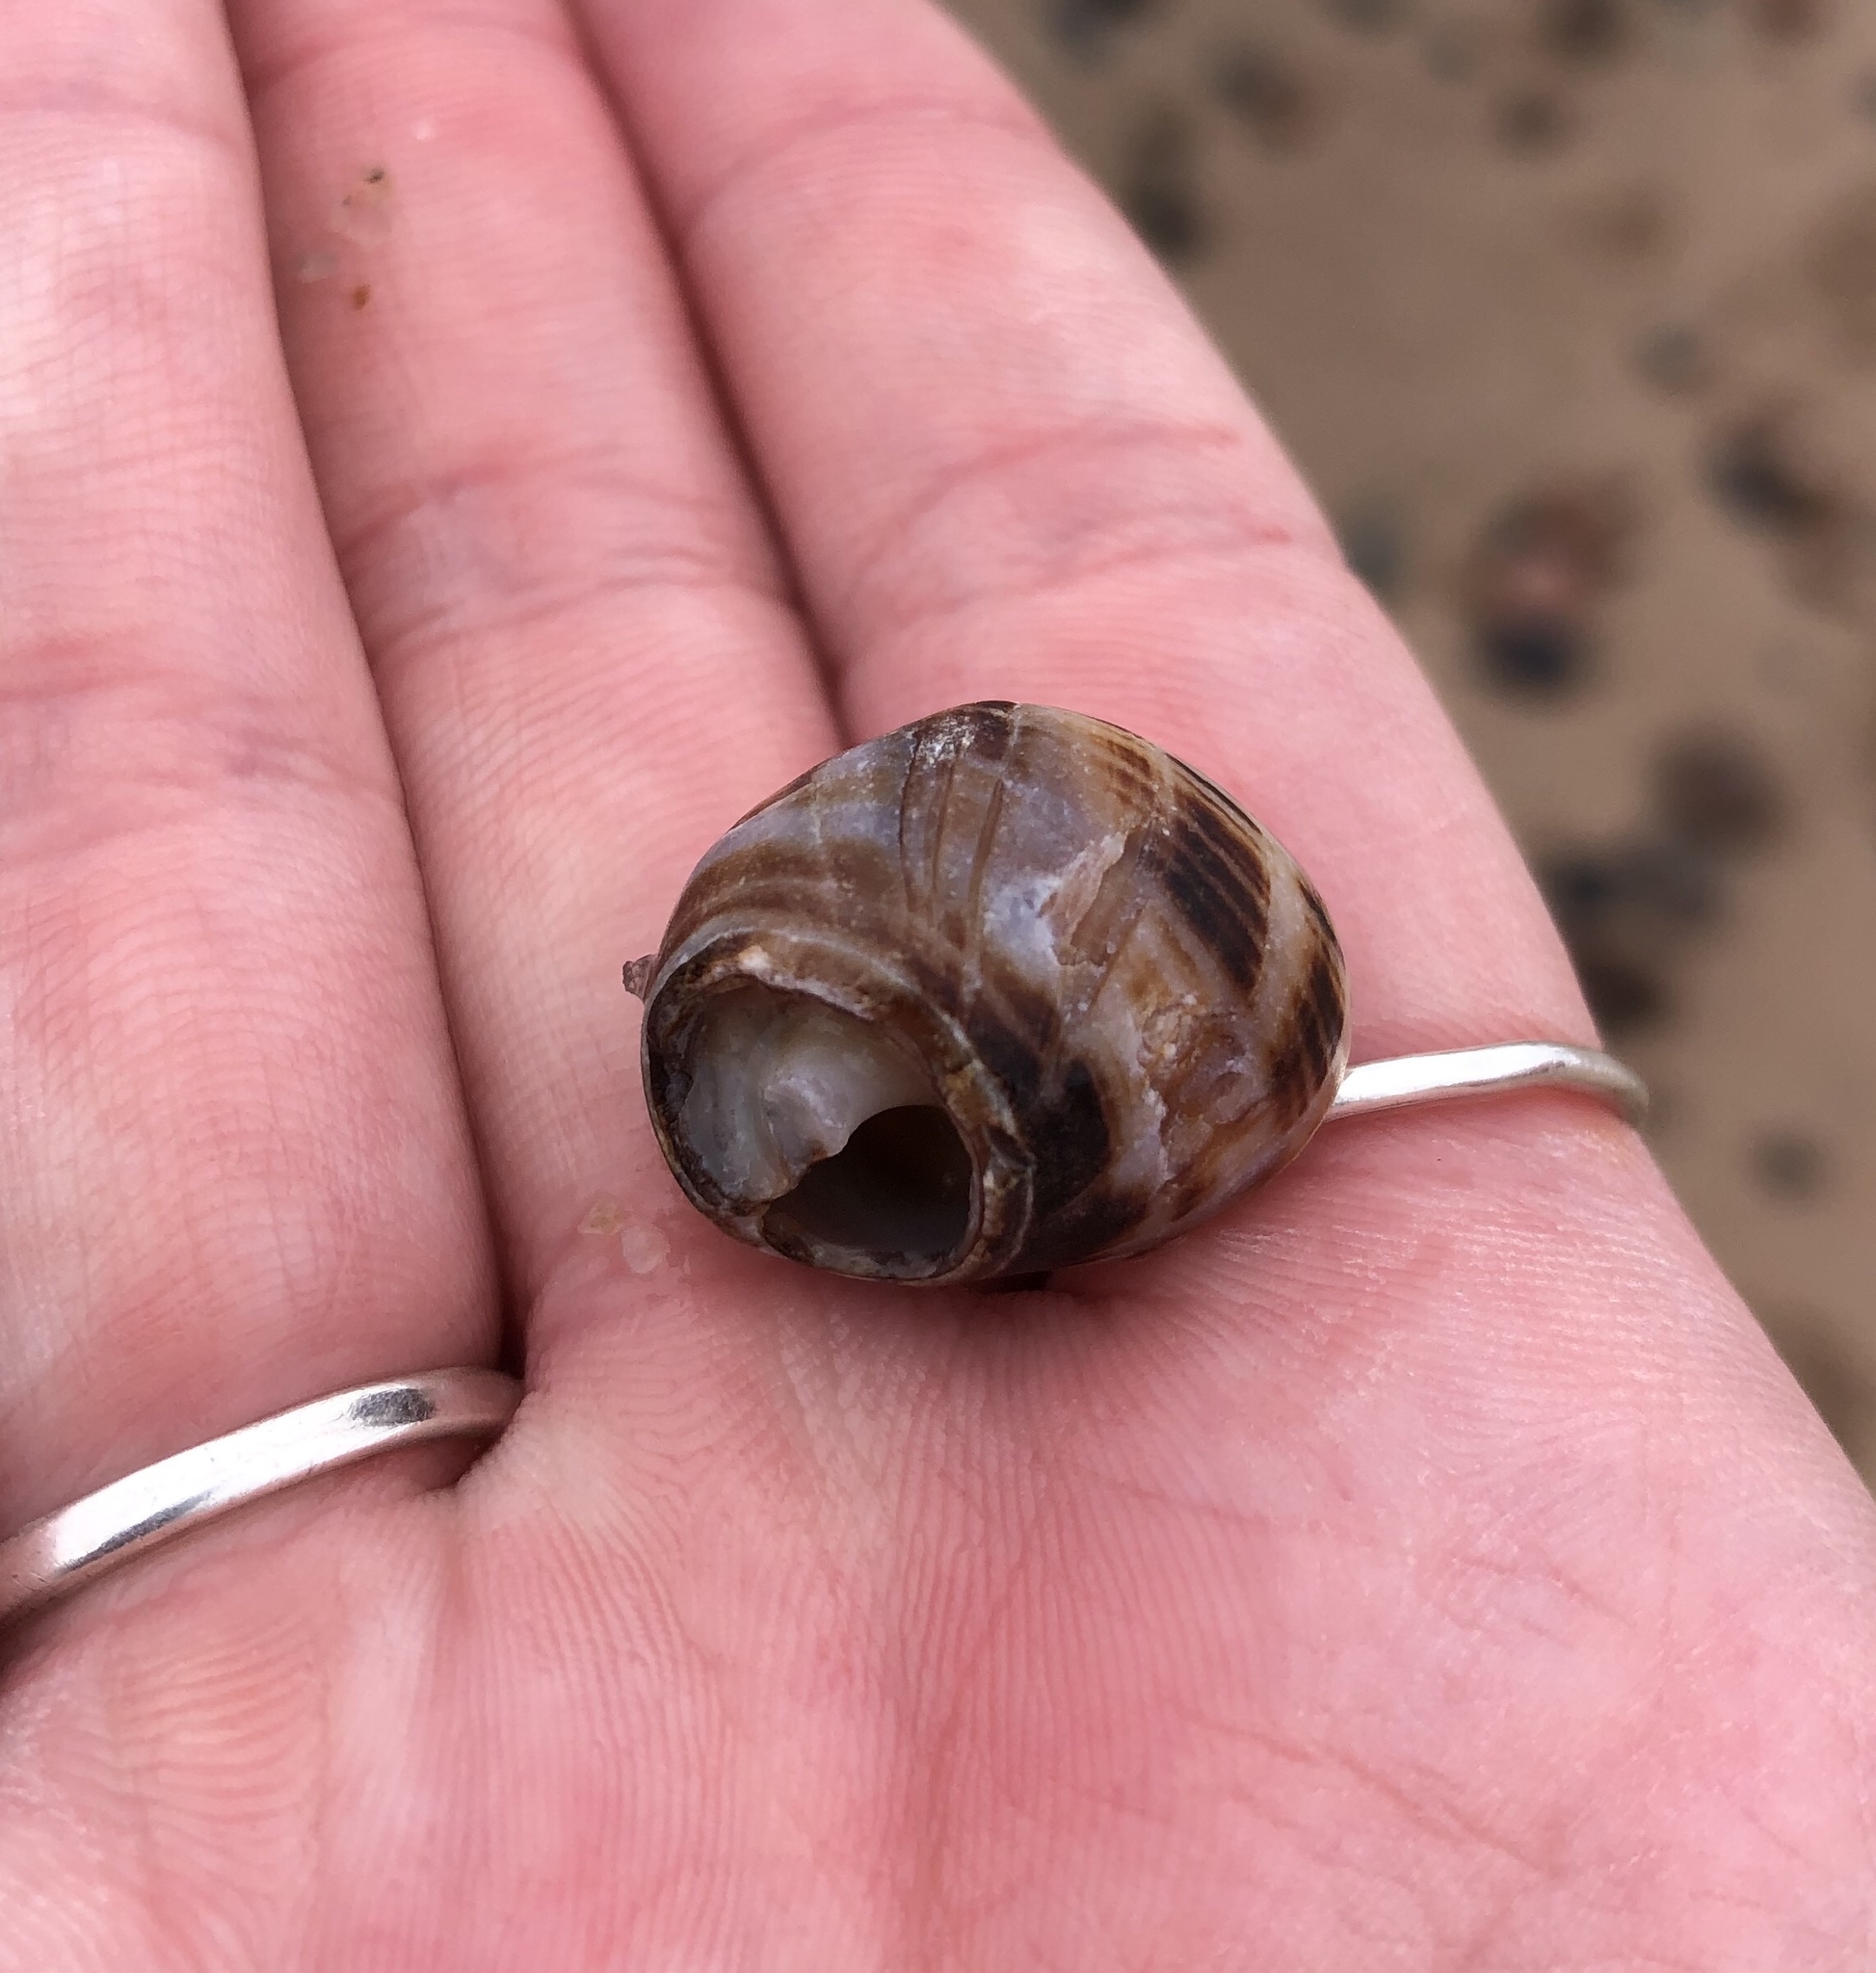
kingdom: Animalia
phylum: Mollusca
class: Gastropoda
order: Littorinimorpha
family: Littorinidae
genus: Littorina
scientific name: Littorina littorea
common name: Common periwinkle
